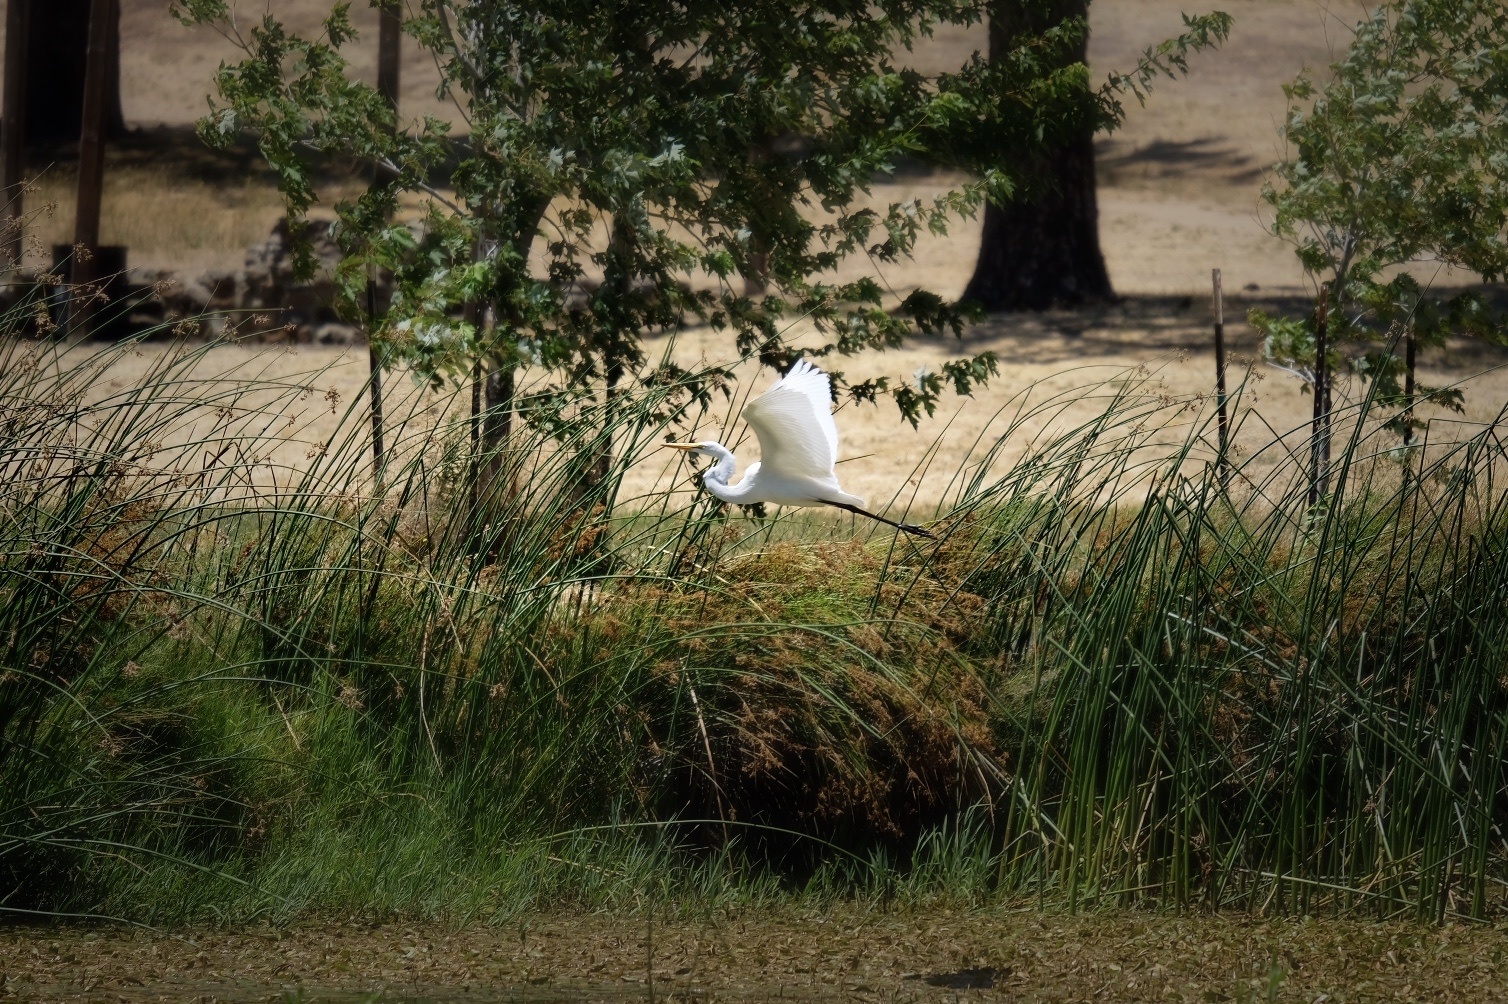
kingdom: Animalia
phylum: Chordata
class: Aves
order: Pelecaniformes
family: Ardeidae
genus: Ardea
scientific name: Ardea alba
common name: Great egret
